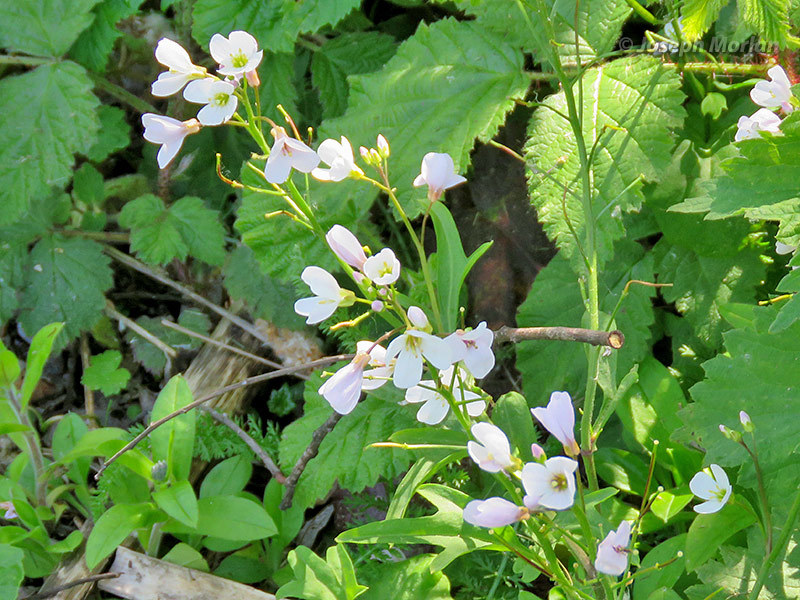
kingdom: Plantae
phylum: Tracheophyta
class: Magnoliopsida
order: Brassicales
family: Brassicaceae
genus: Cardamine
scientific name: Cardamine californica
